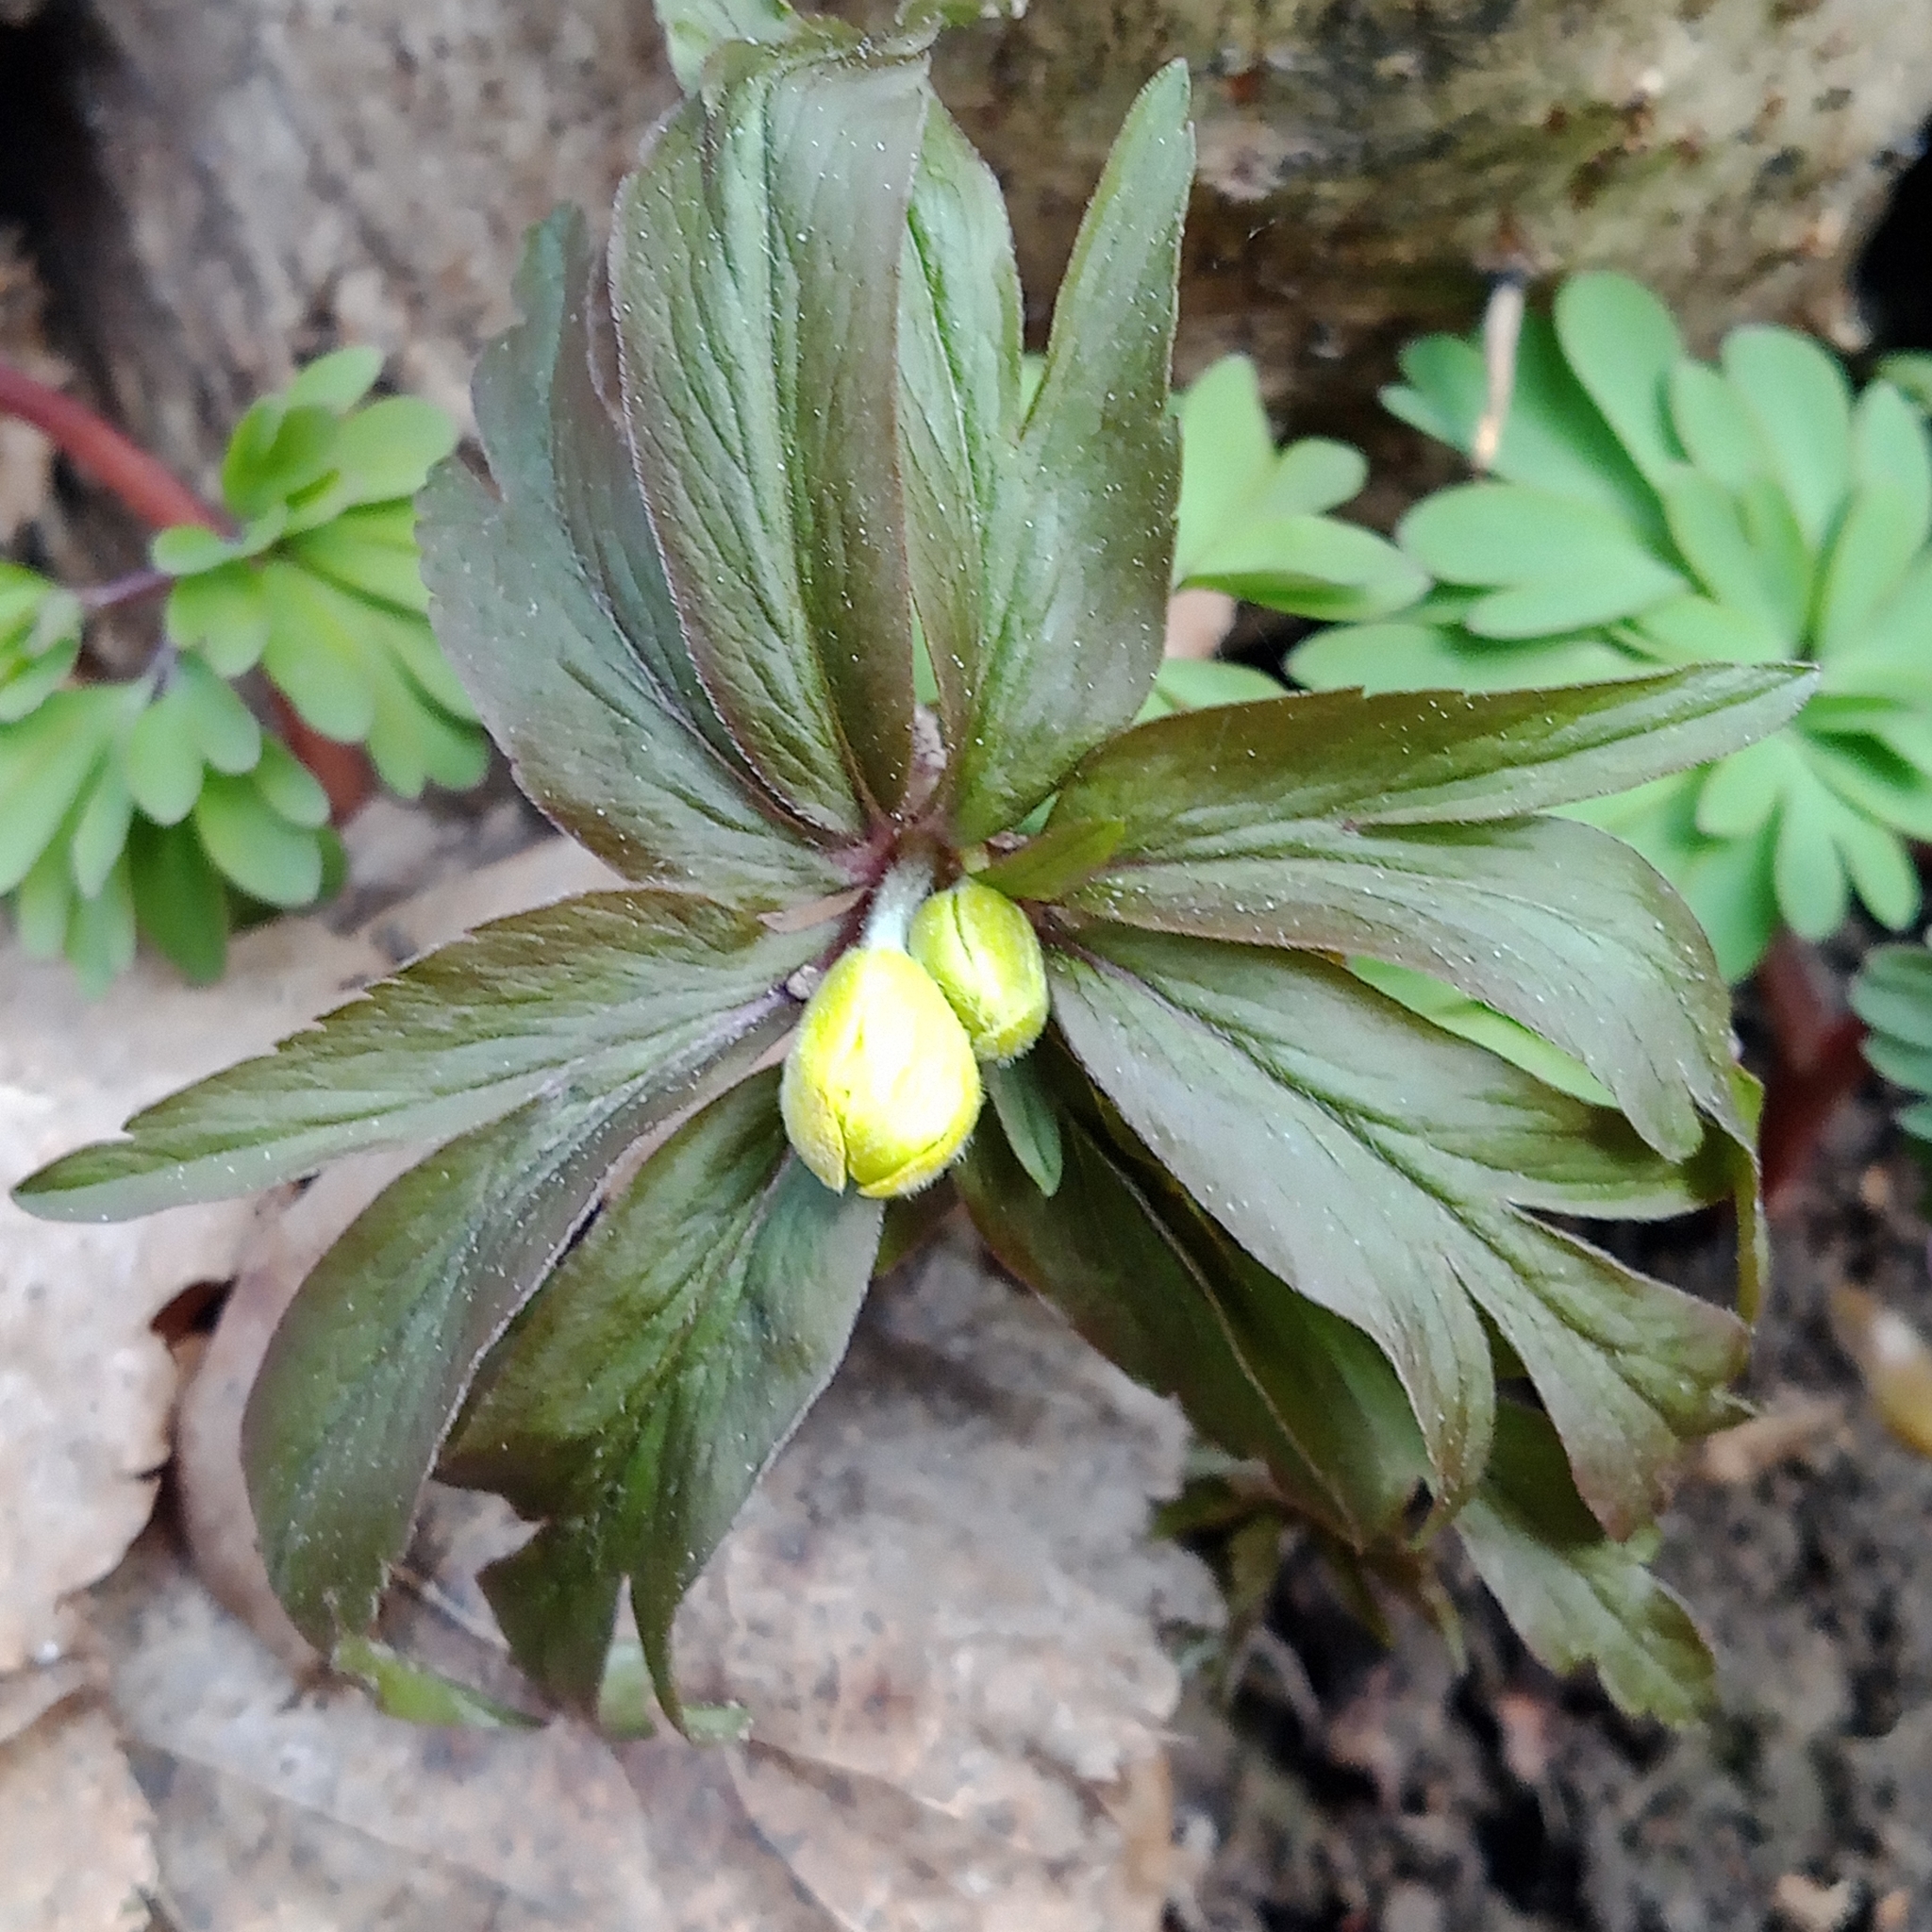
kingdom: Plantae
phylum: Tracheophyta
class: Magnoliopsida
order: Ranunculales
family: Ranunculaceae
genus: Anemone
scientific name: Anemone ranunculoides
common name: Yellow anemone
